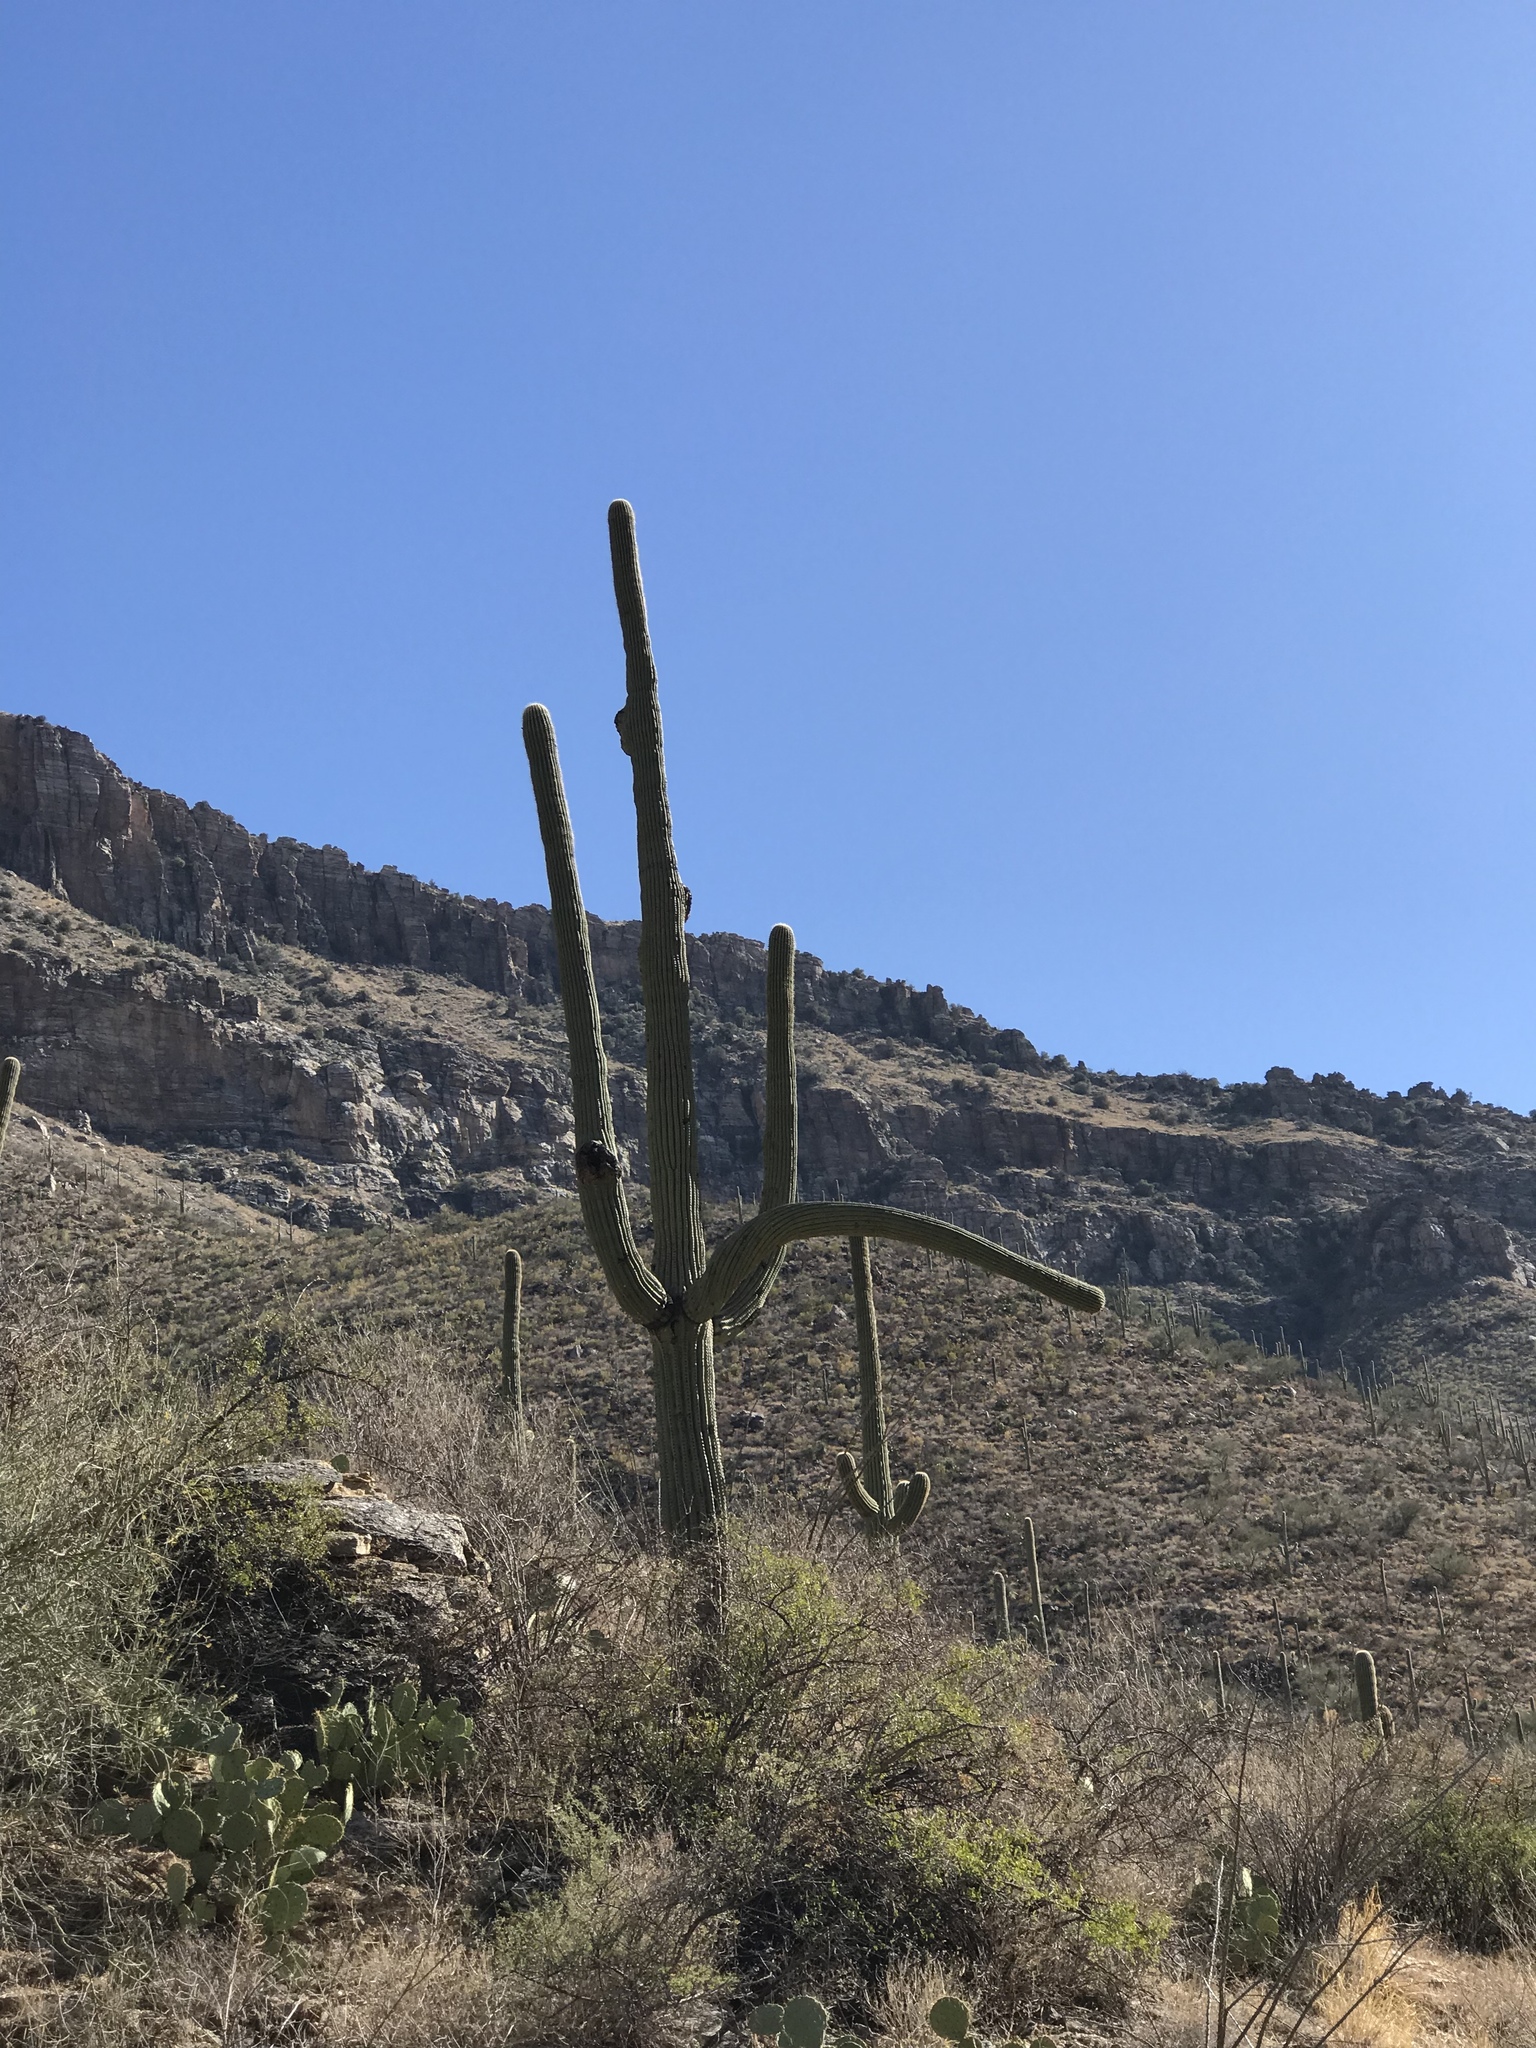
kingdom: Plantae
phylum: Tracheophyta
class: Magnoliopsida
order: Caryophyllales
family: Cactaceae
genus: Carnegiea
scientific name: Carnegiea gigantea
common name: Saguaro
